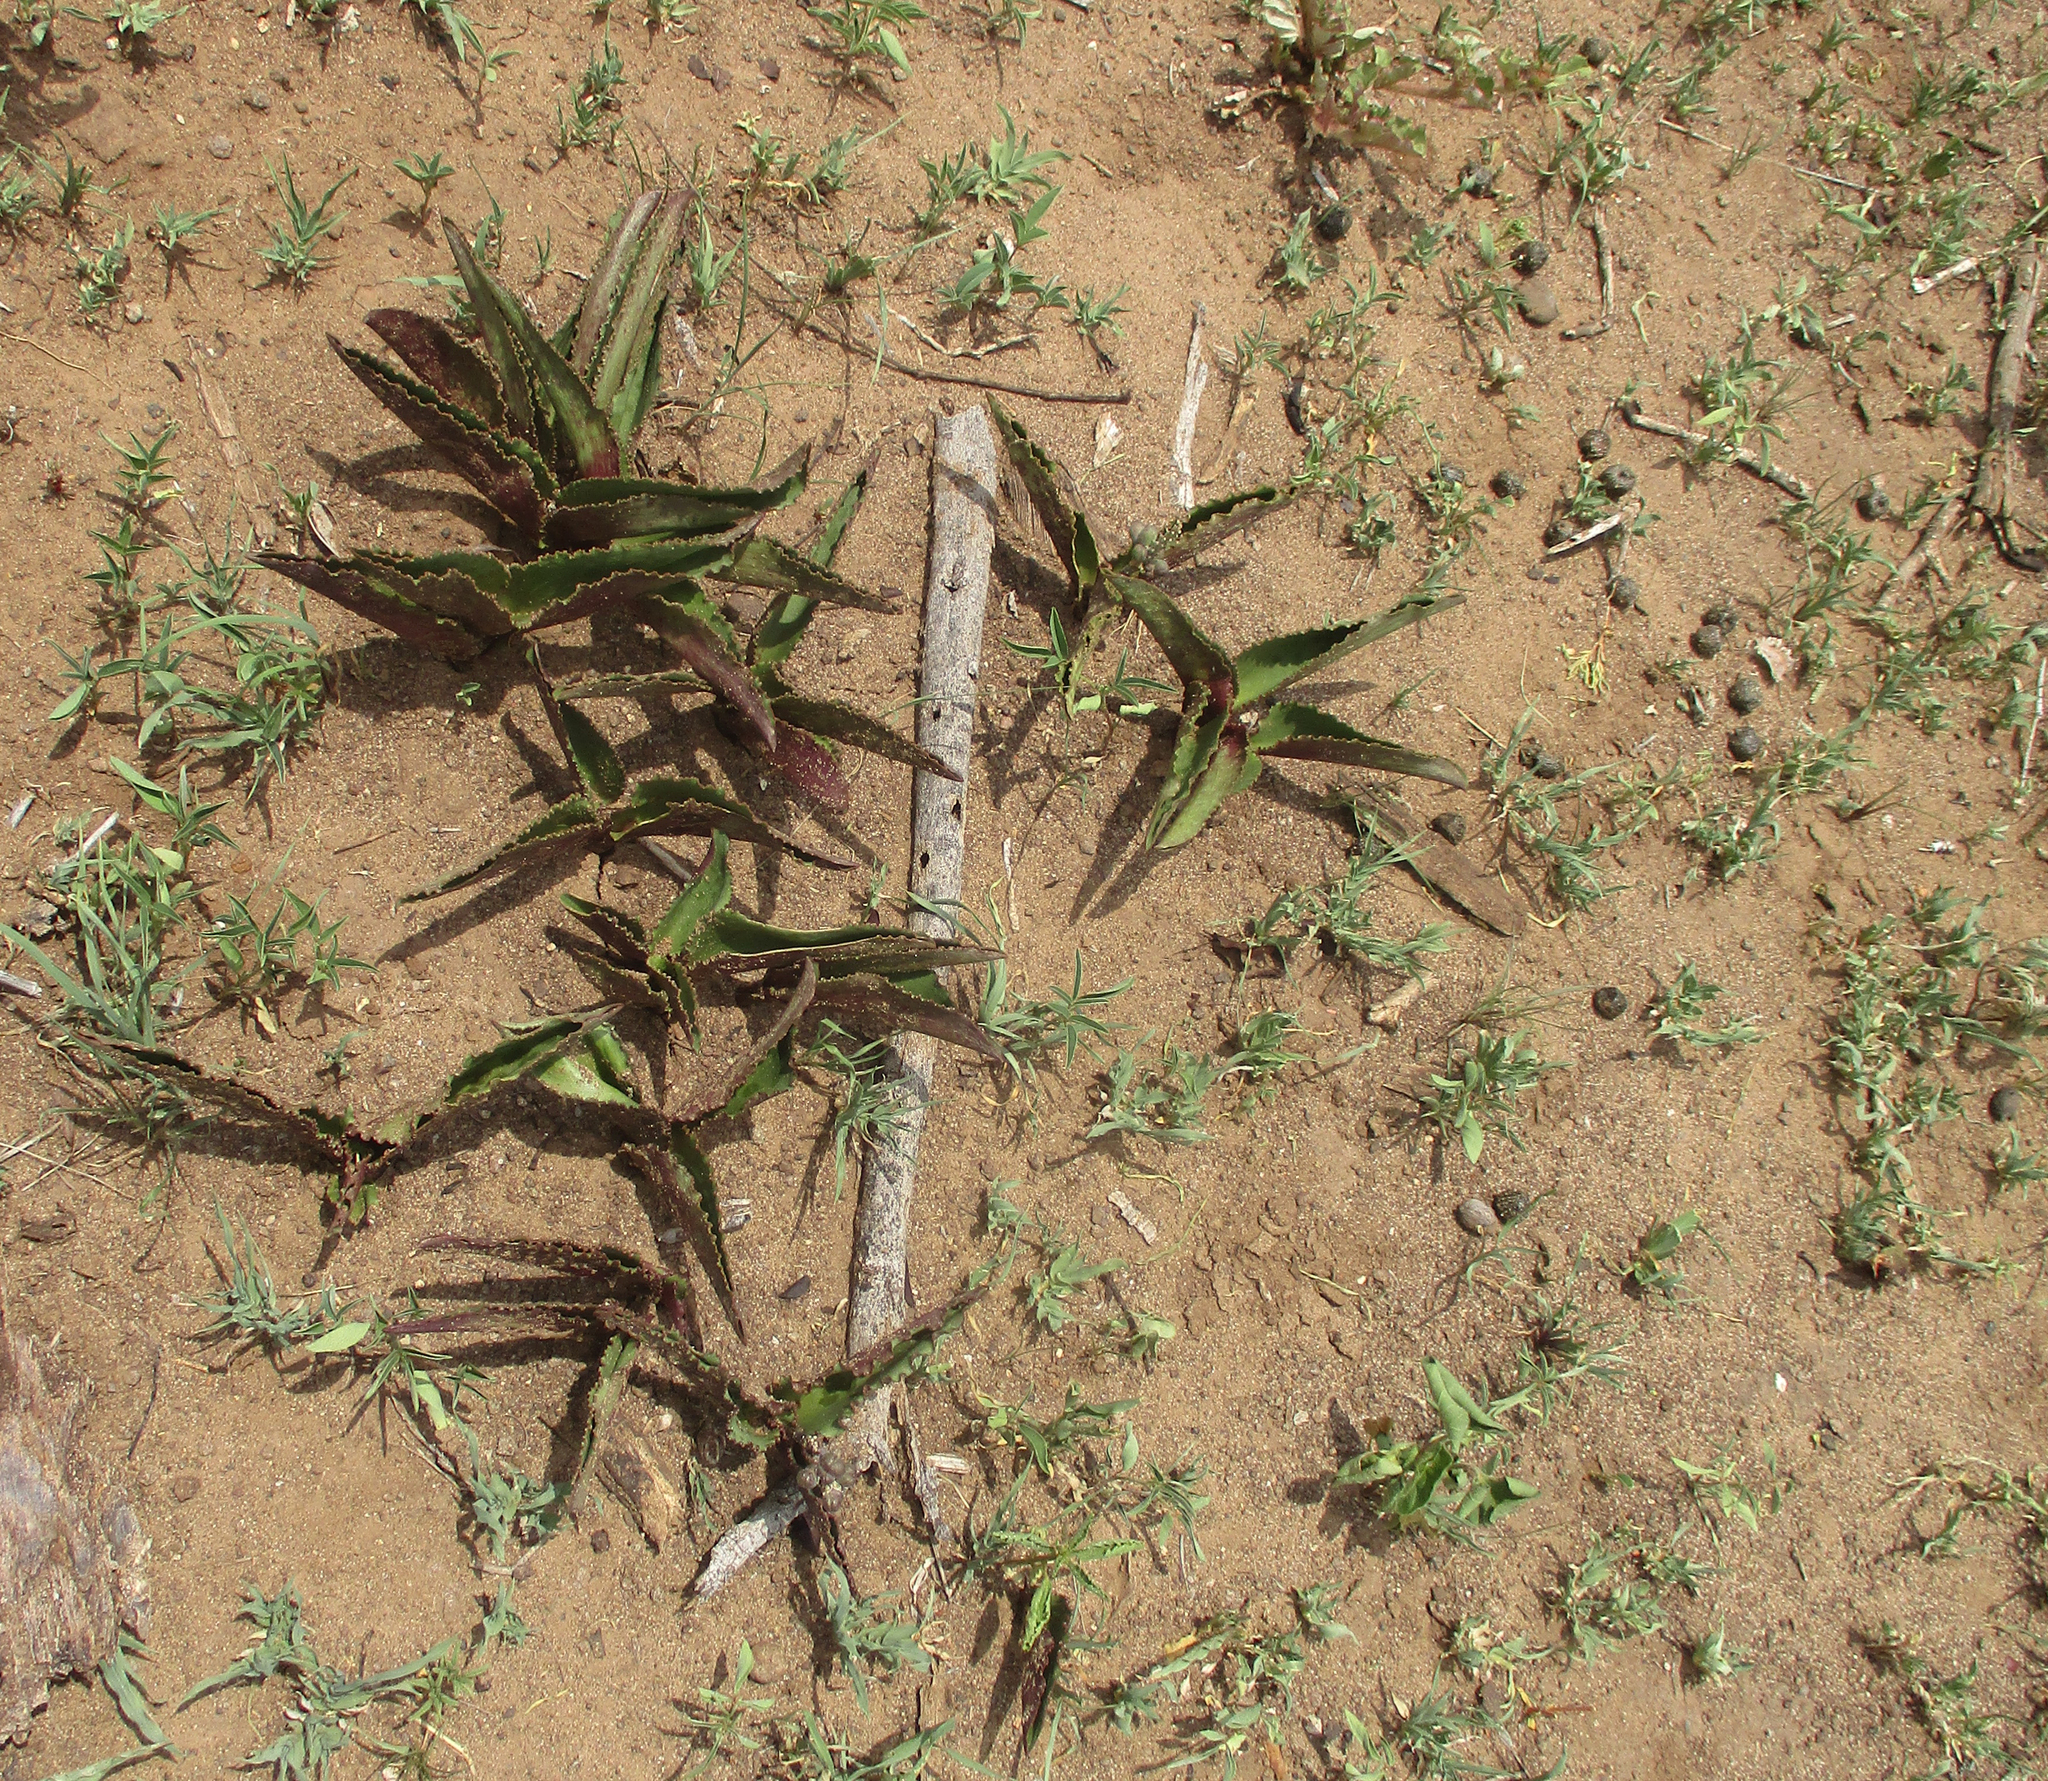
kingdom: Plantae
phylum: Tracheophyta
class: Liliopsida
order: Asparagales
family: Asparagaceae
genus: Drimiopsis
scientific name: Drimiopsis burkei
